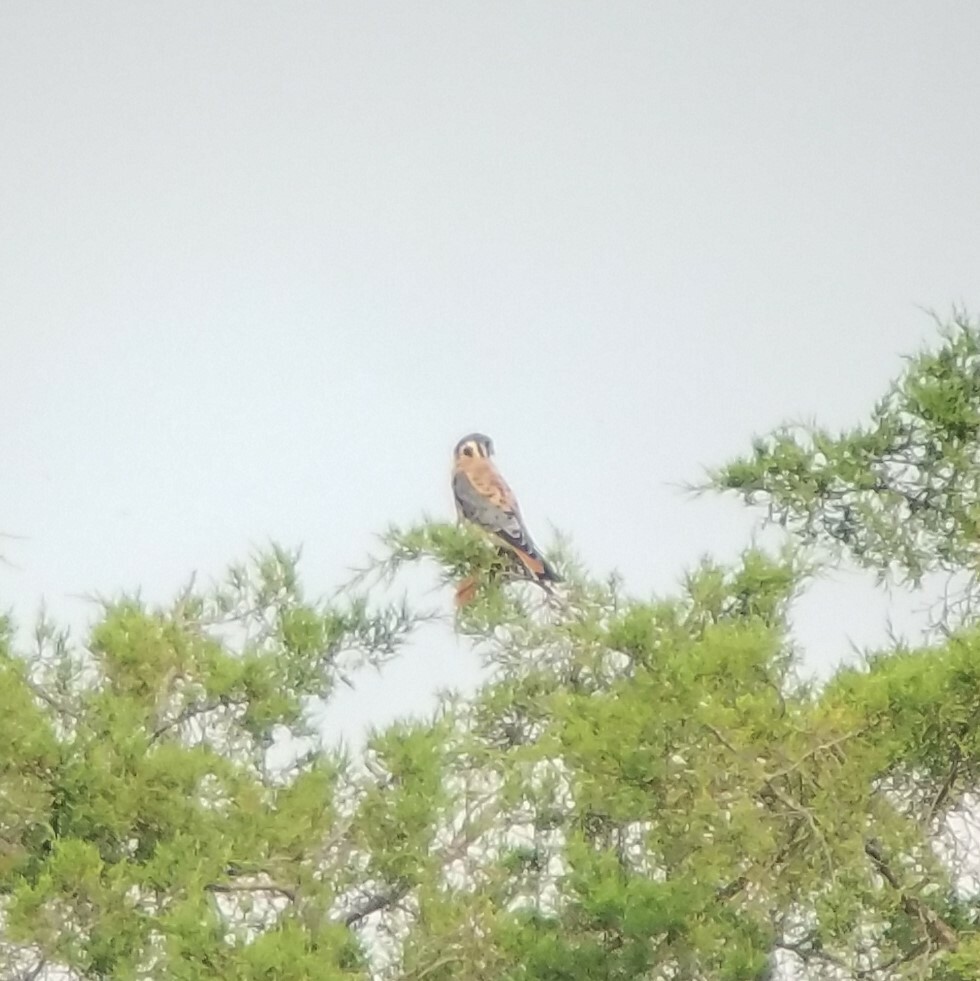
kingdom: Animalia
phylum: Chordata
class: Aves
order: Falconiformes
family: Falconidae
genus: Falco
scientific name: Falco sparverius
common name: American kestrel
